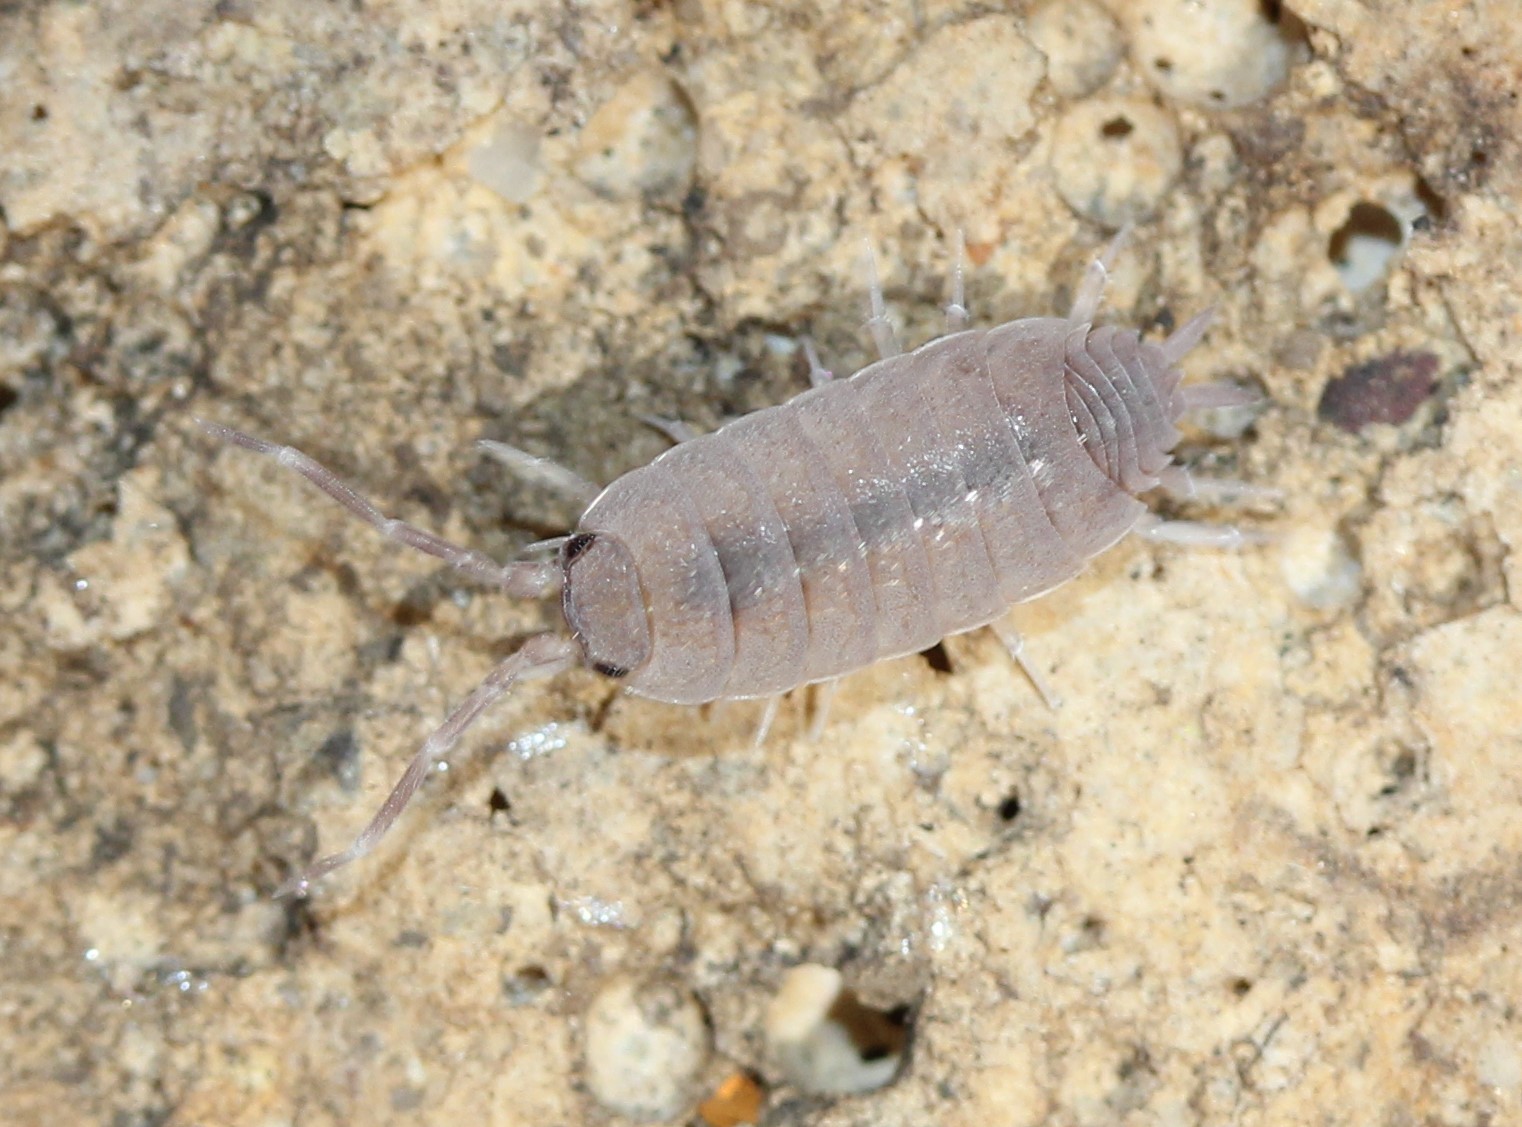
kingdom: Animalia
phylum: Arthropoda
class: Malacostraca
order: Isopoda
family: Porcellionidae
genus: Porcellionides
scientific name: Porcellionides pruinosus
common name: Plum woodlouse
